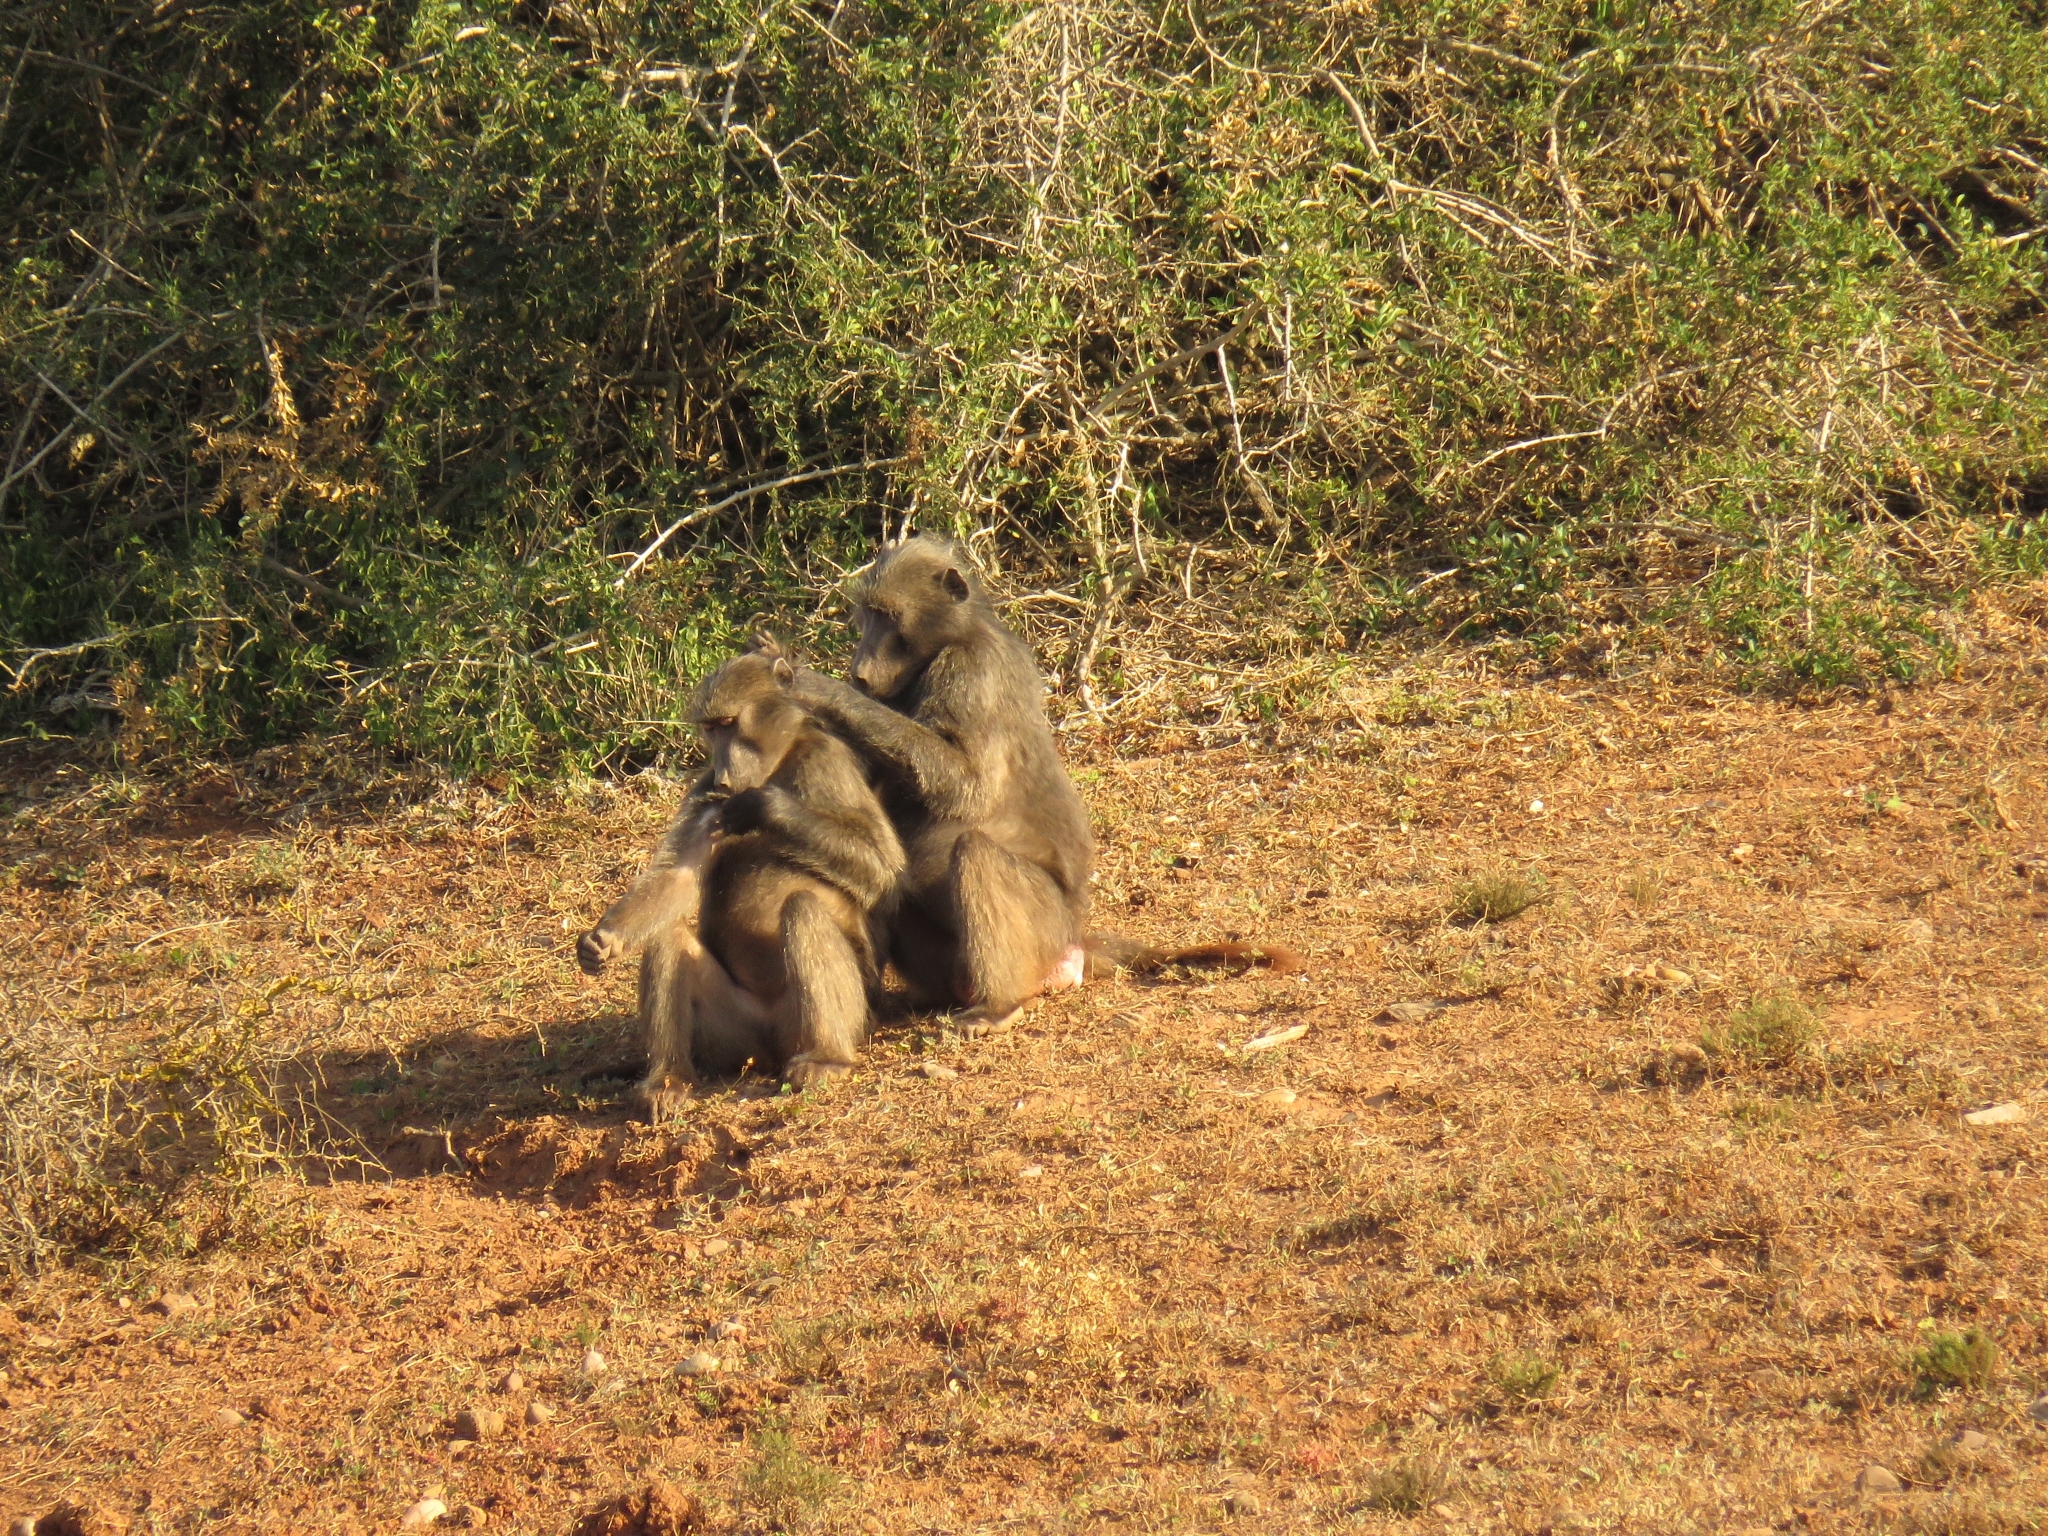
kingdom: Animalia
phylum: Chordata
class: Mammalia
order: Primates
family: Cercopithecidae
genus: Papio
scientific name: Papio ursinus
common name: Chacma baboon
